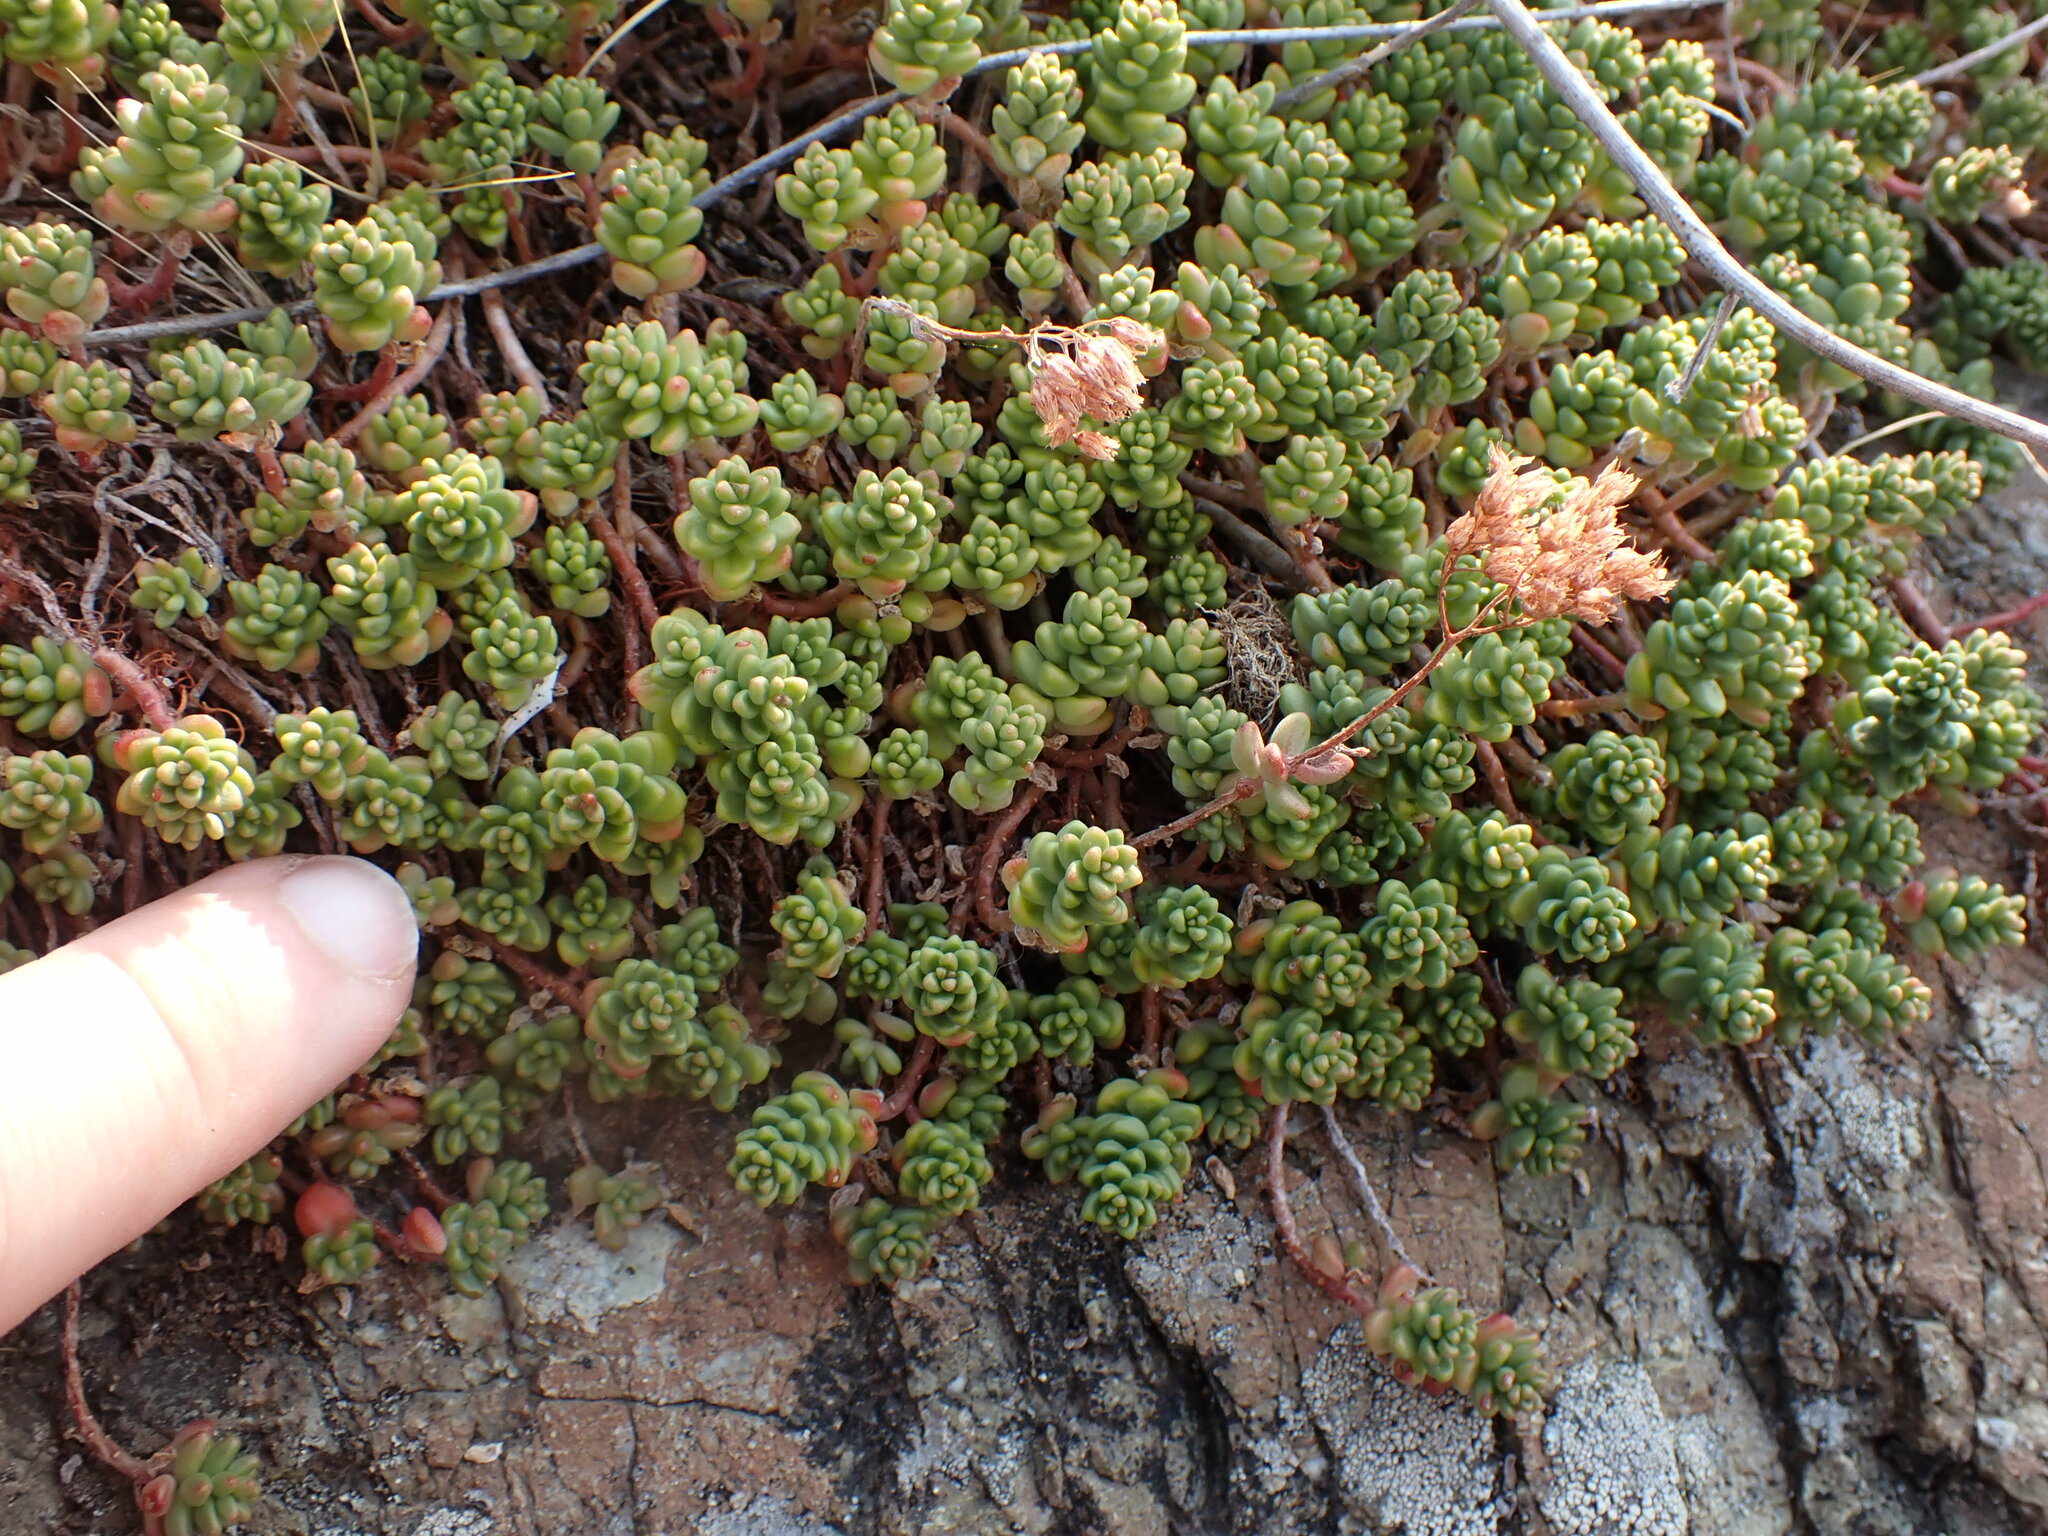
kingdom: Plantae
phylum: Tracheophyta
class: Magnoliopsida
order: Saxifragales
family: Crassulaceae
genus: Sedum
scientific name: Sedum album
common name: White stonecrop
